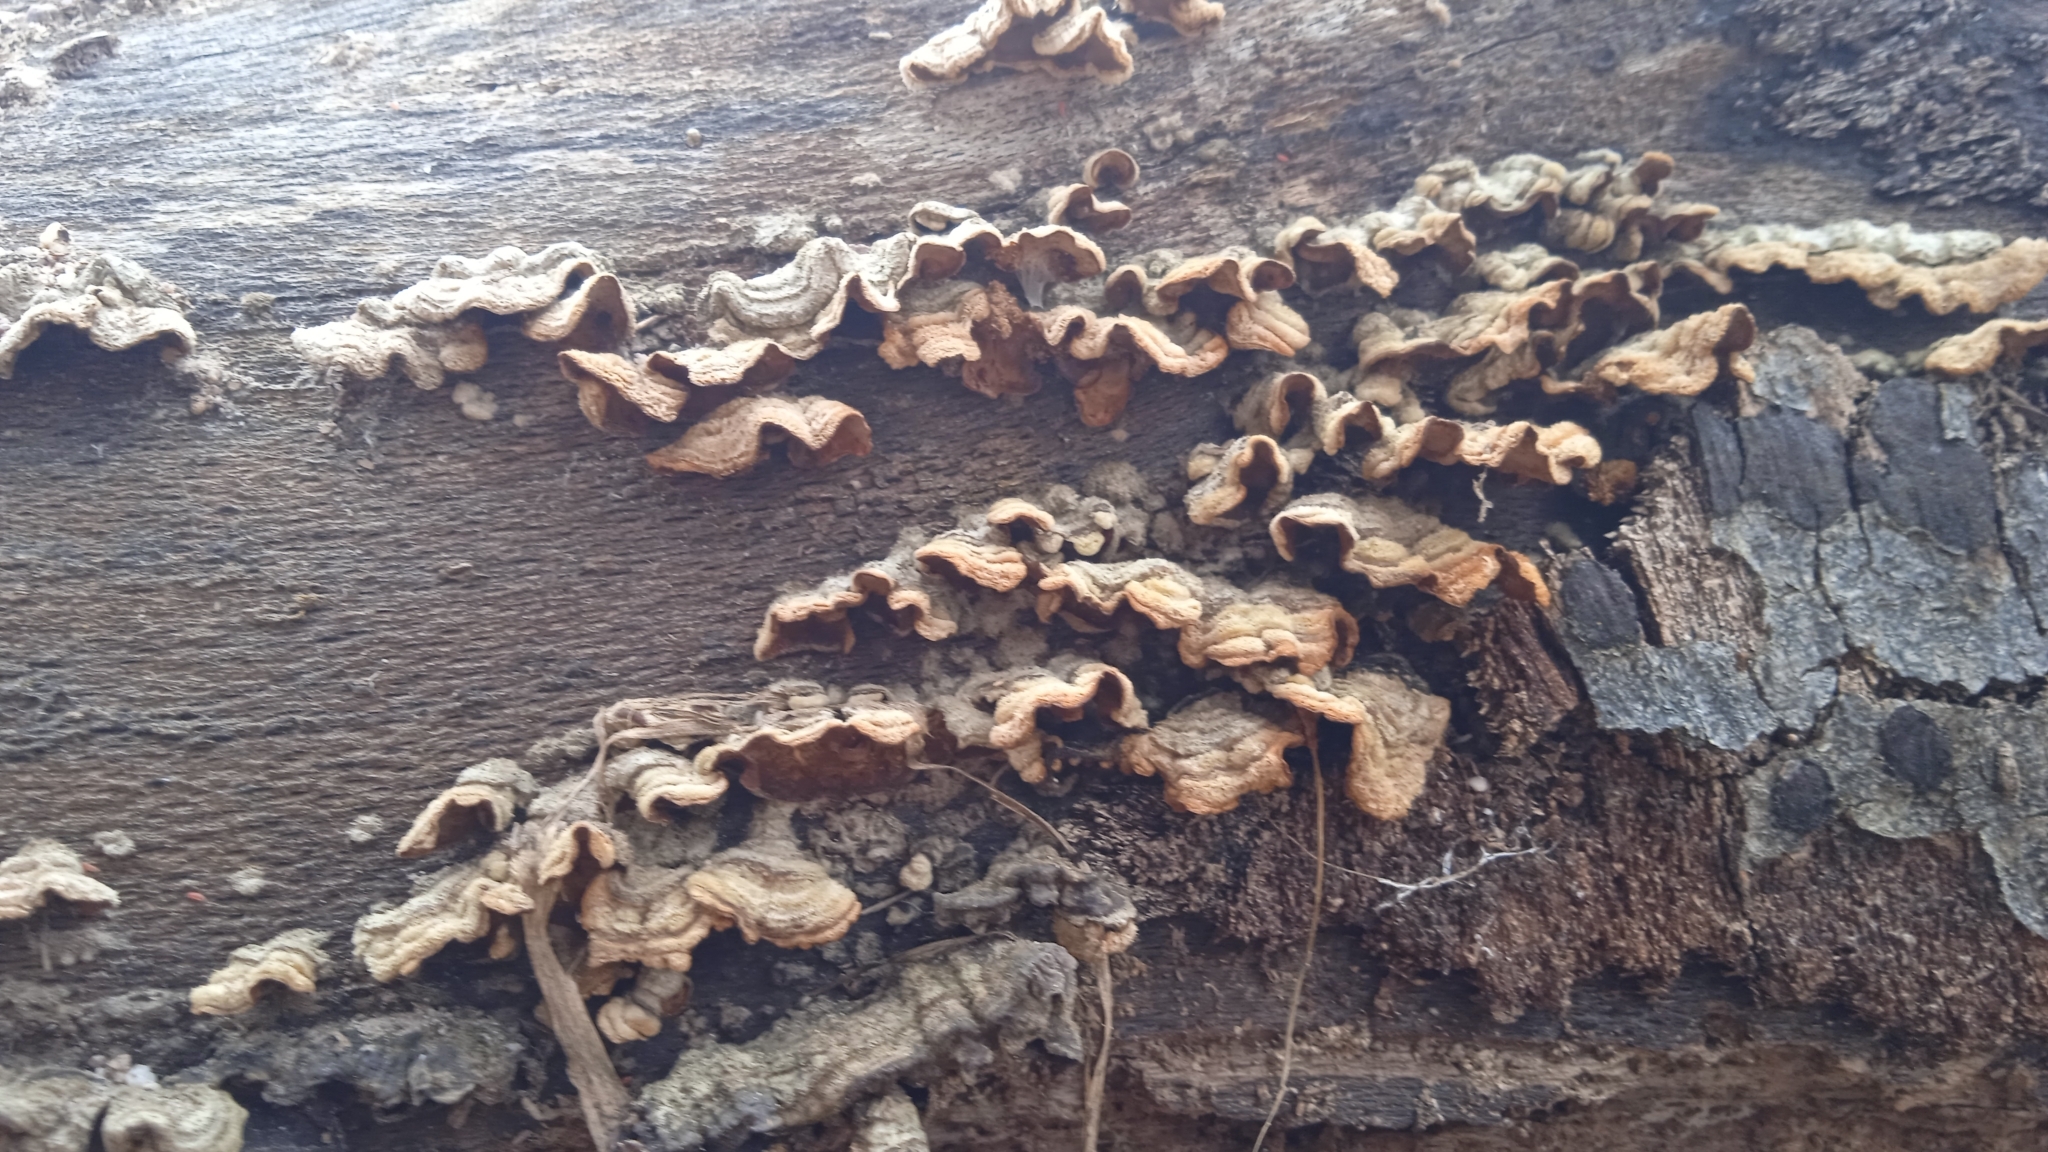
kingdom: Fungi
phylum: Basidiomycota
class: Agaricomycetes
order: Russulales
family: Stereaceae
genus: Stereum
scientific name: Stereum hirsutum
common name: Hairy curtain crust
